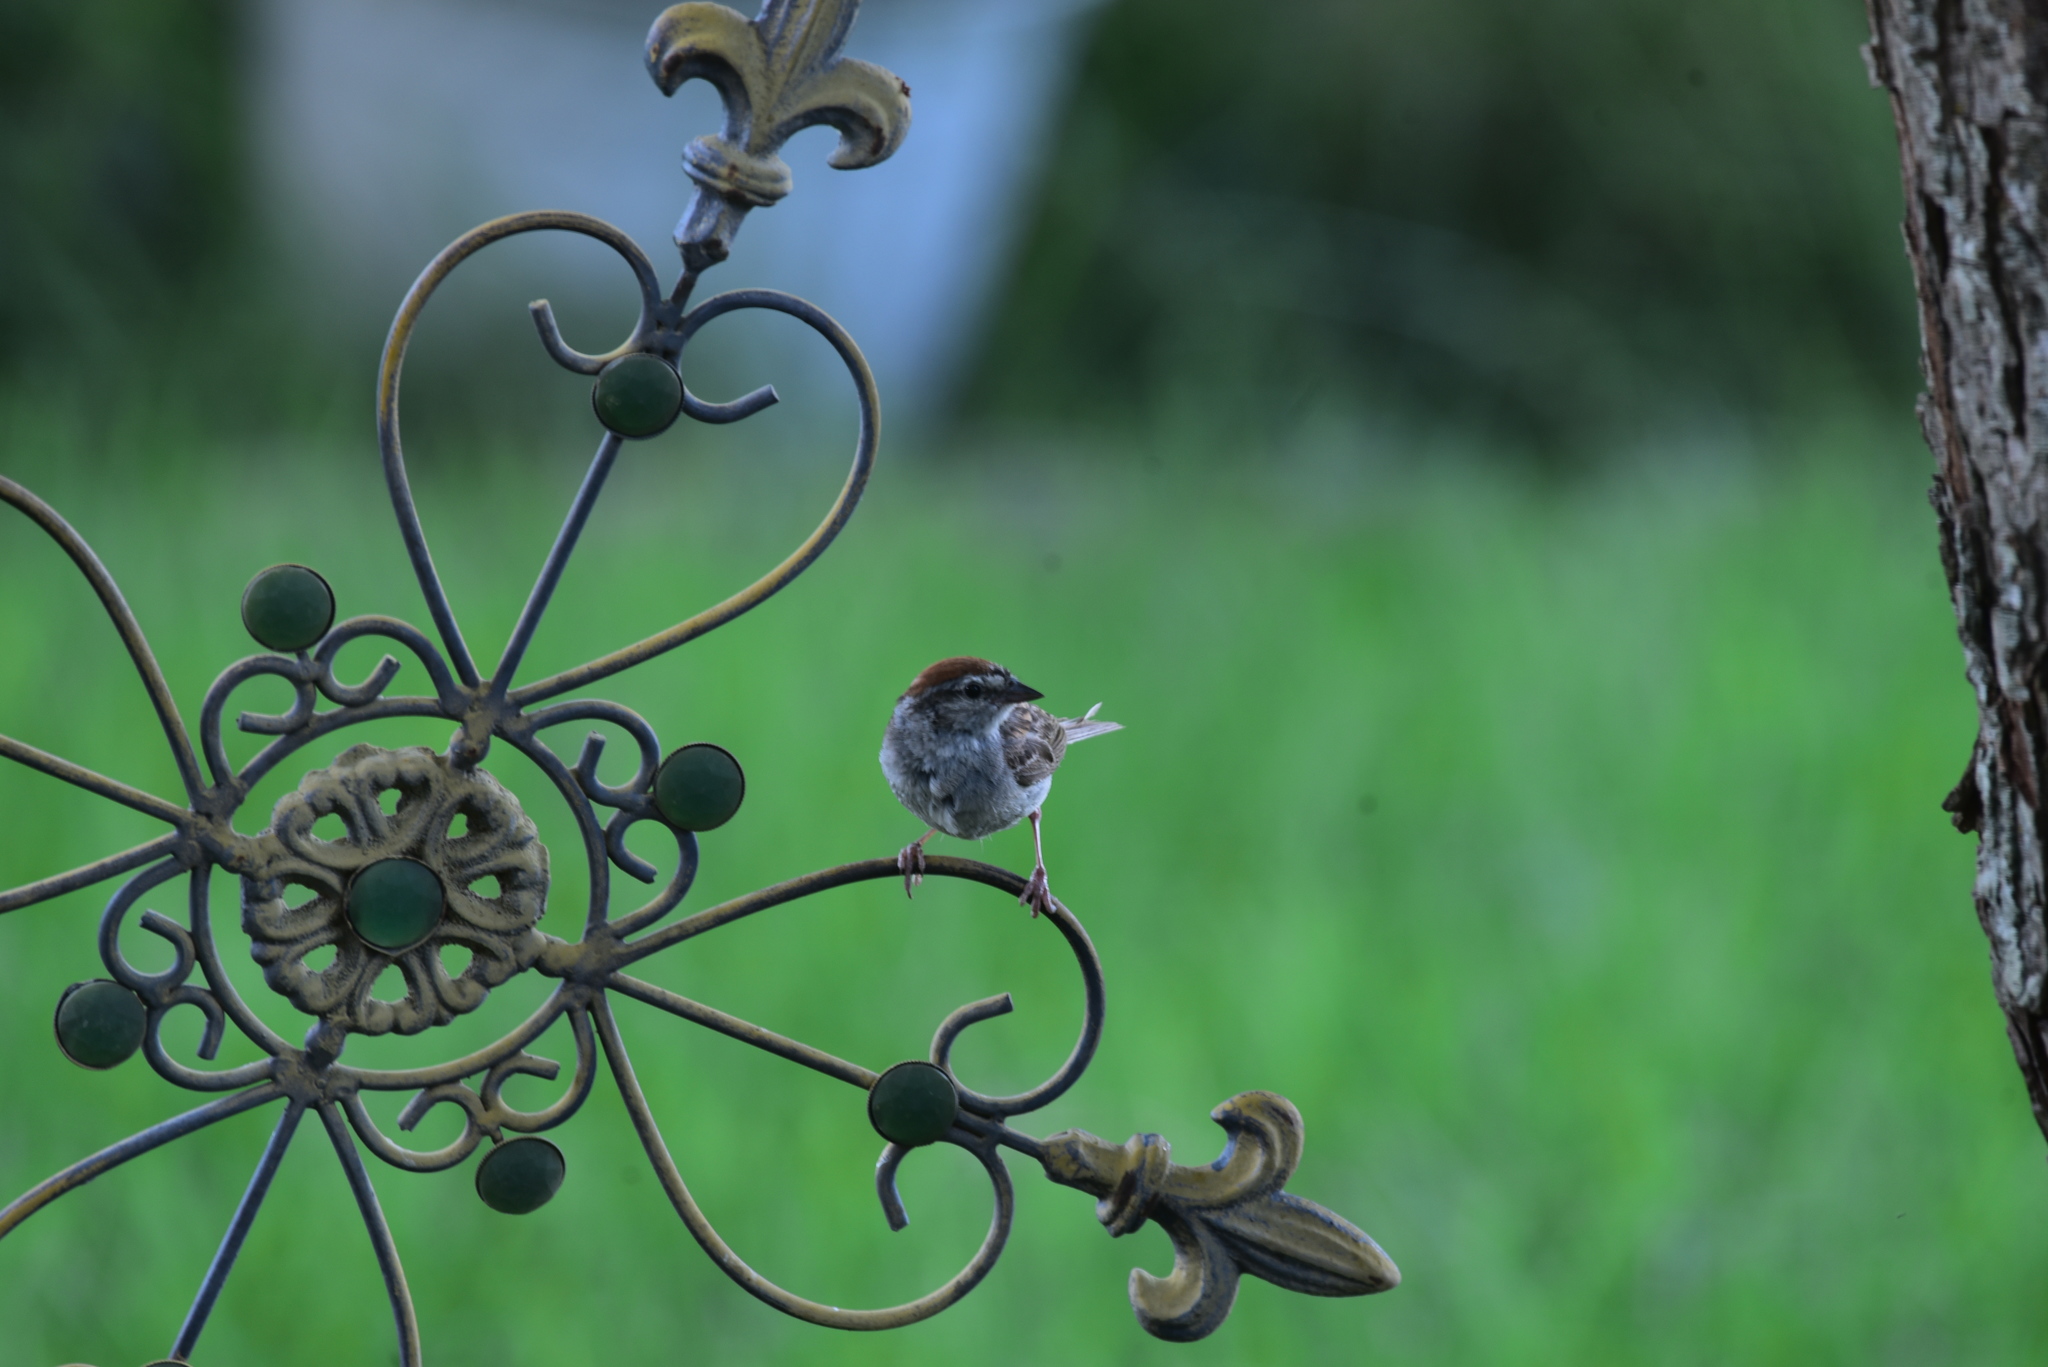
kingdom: Animalia
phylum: Chordata
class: Aves
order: Passeriformes
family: Passerellidae
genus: Spizella
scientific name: Spizella passerina
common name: Chipping sparrow
